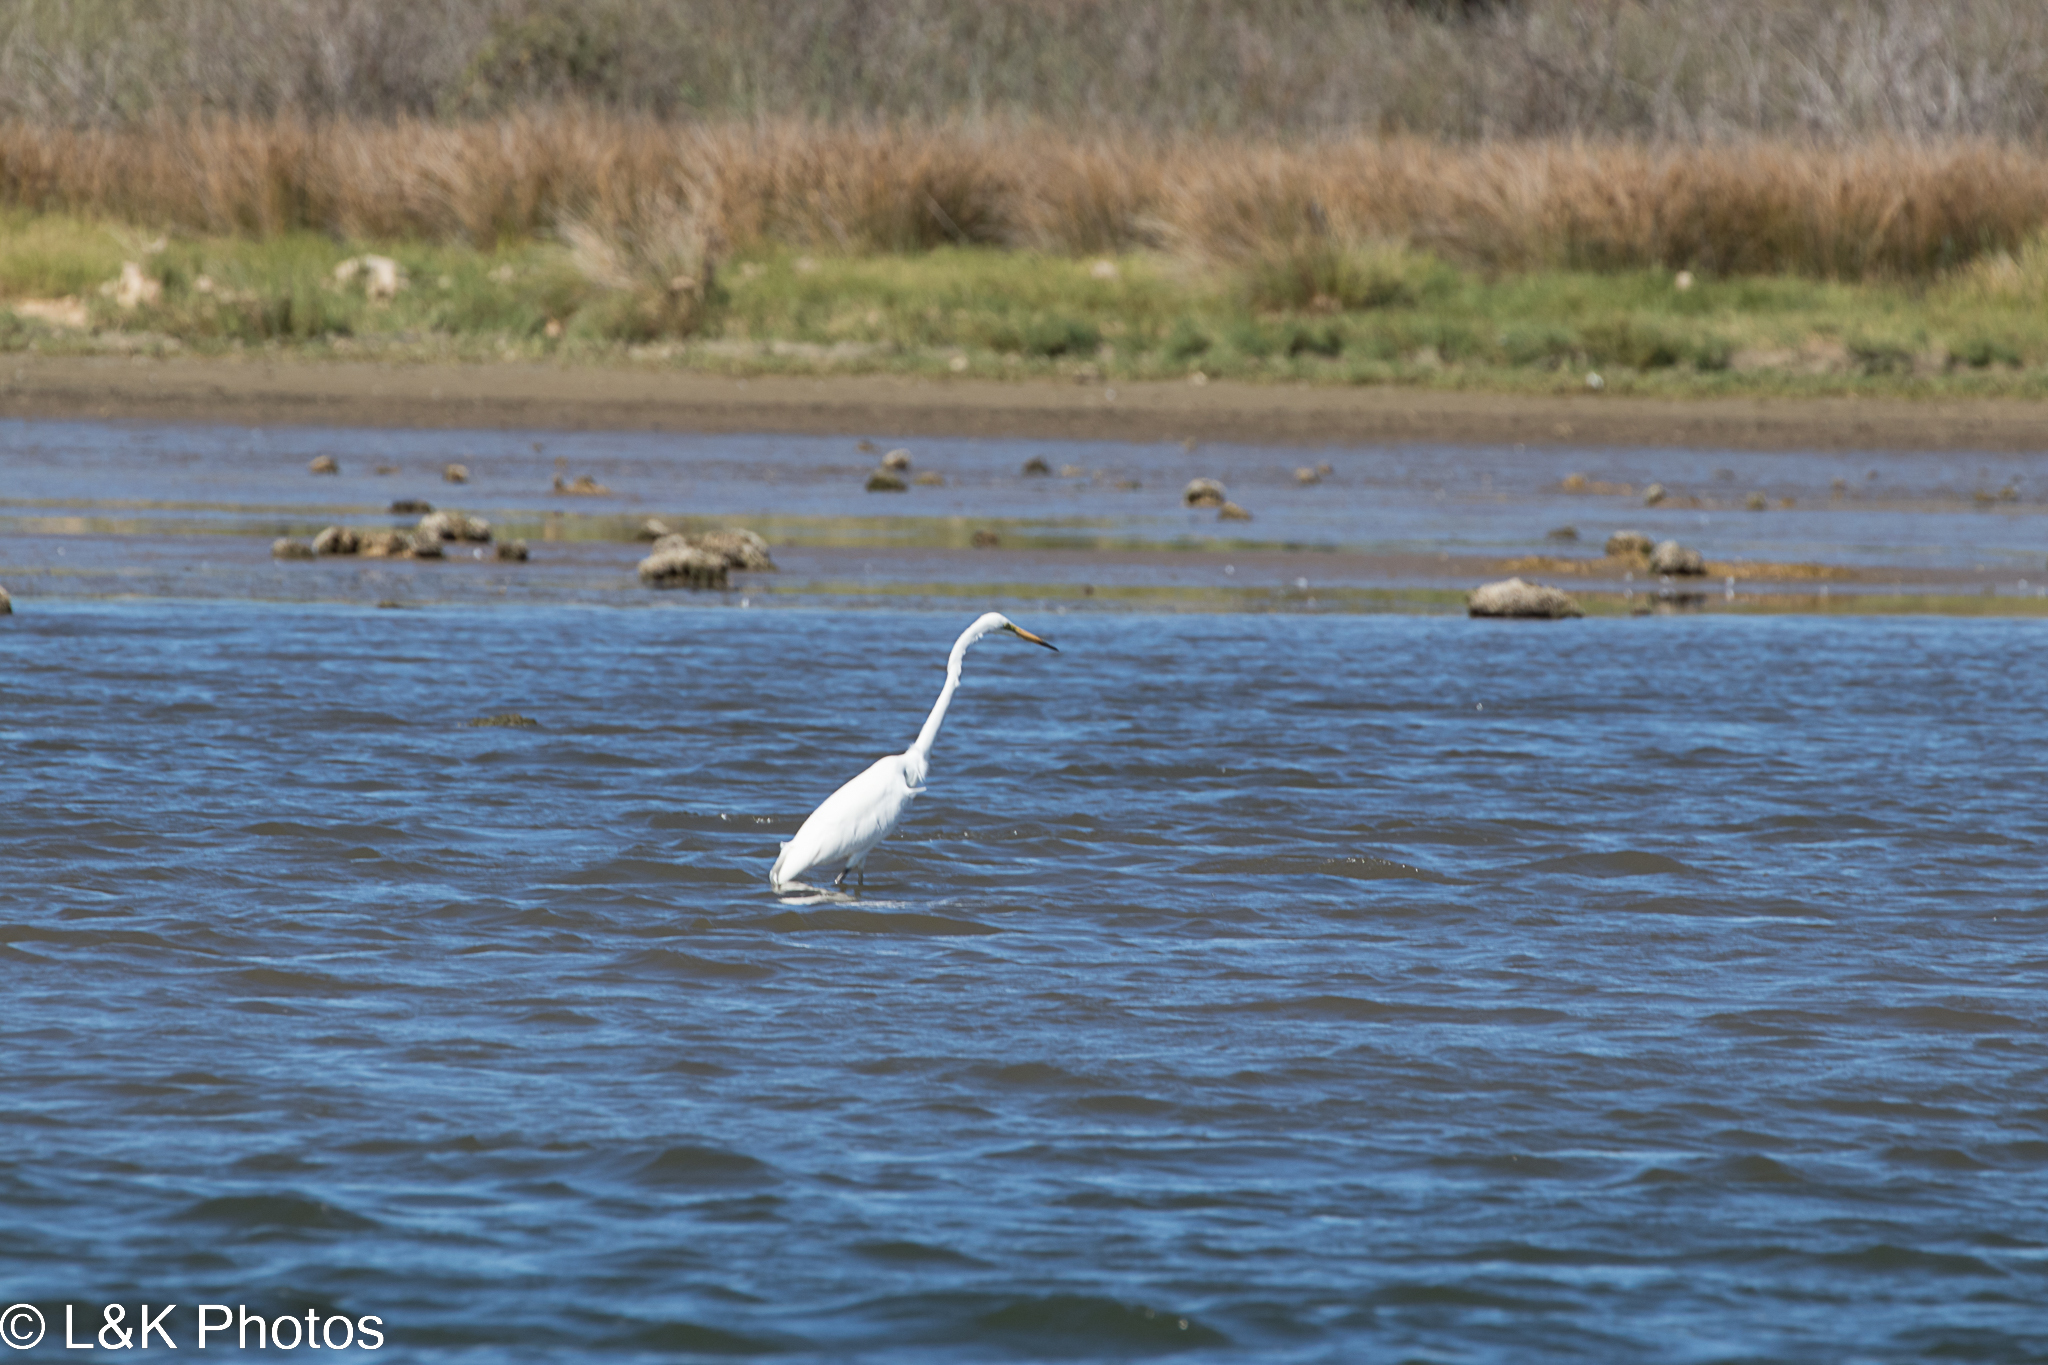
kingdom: Animalia
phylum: Chordata
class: Aves
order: Pelecaniformes
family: Ardeidae
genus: Ardea
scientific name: Ardea alba
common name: Great egret
